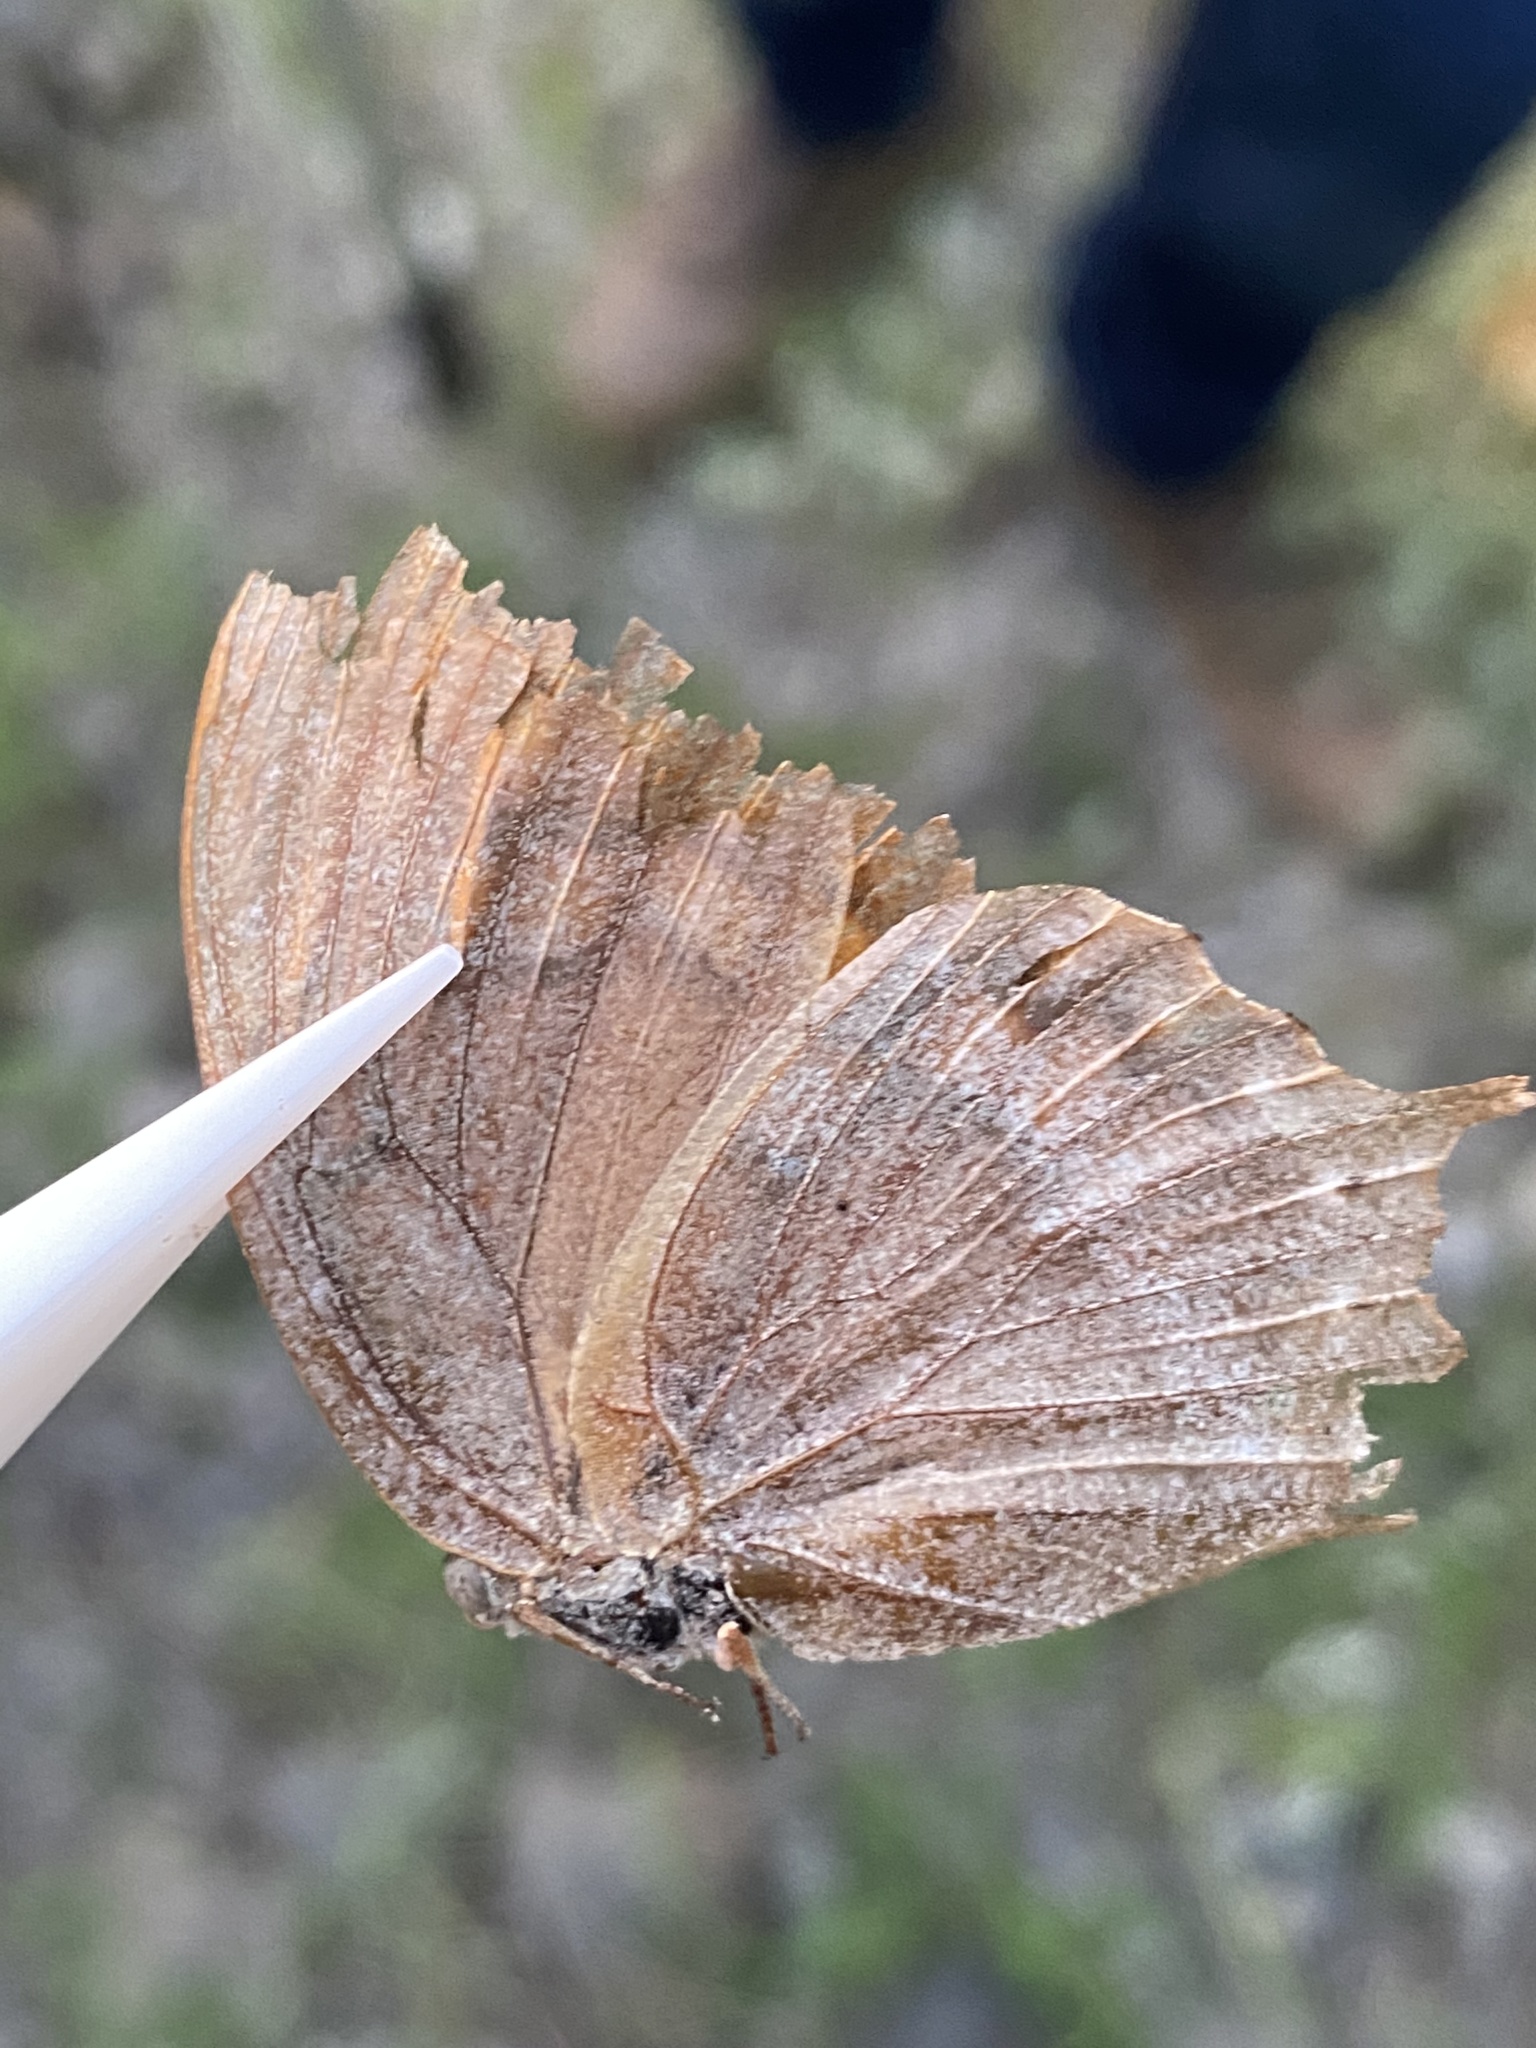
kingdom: Animalia
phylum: Arthropoda
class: Insecta
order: Lepidoptera
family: Nymphalidae
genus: Anaea
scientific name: Anaea aidea
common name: Tropical leafwing
